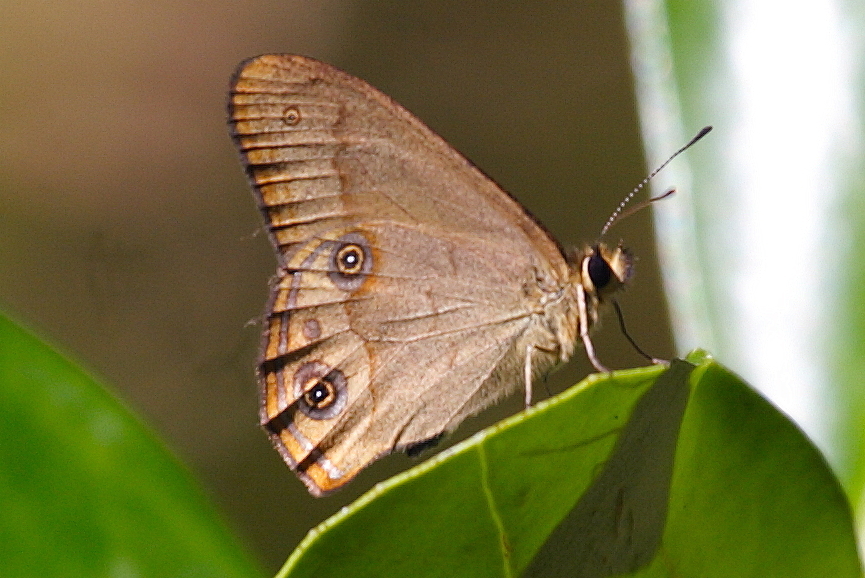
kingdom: Animalia
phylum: Arthropoda
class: Insecta
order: Lepidoptera
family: Nymphalidae
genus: Hypocysta
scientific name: Hypocysta metirius
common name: Brown ringlet
